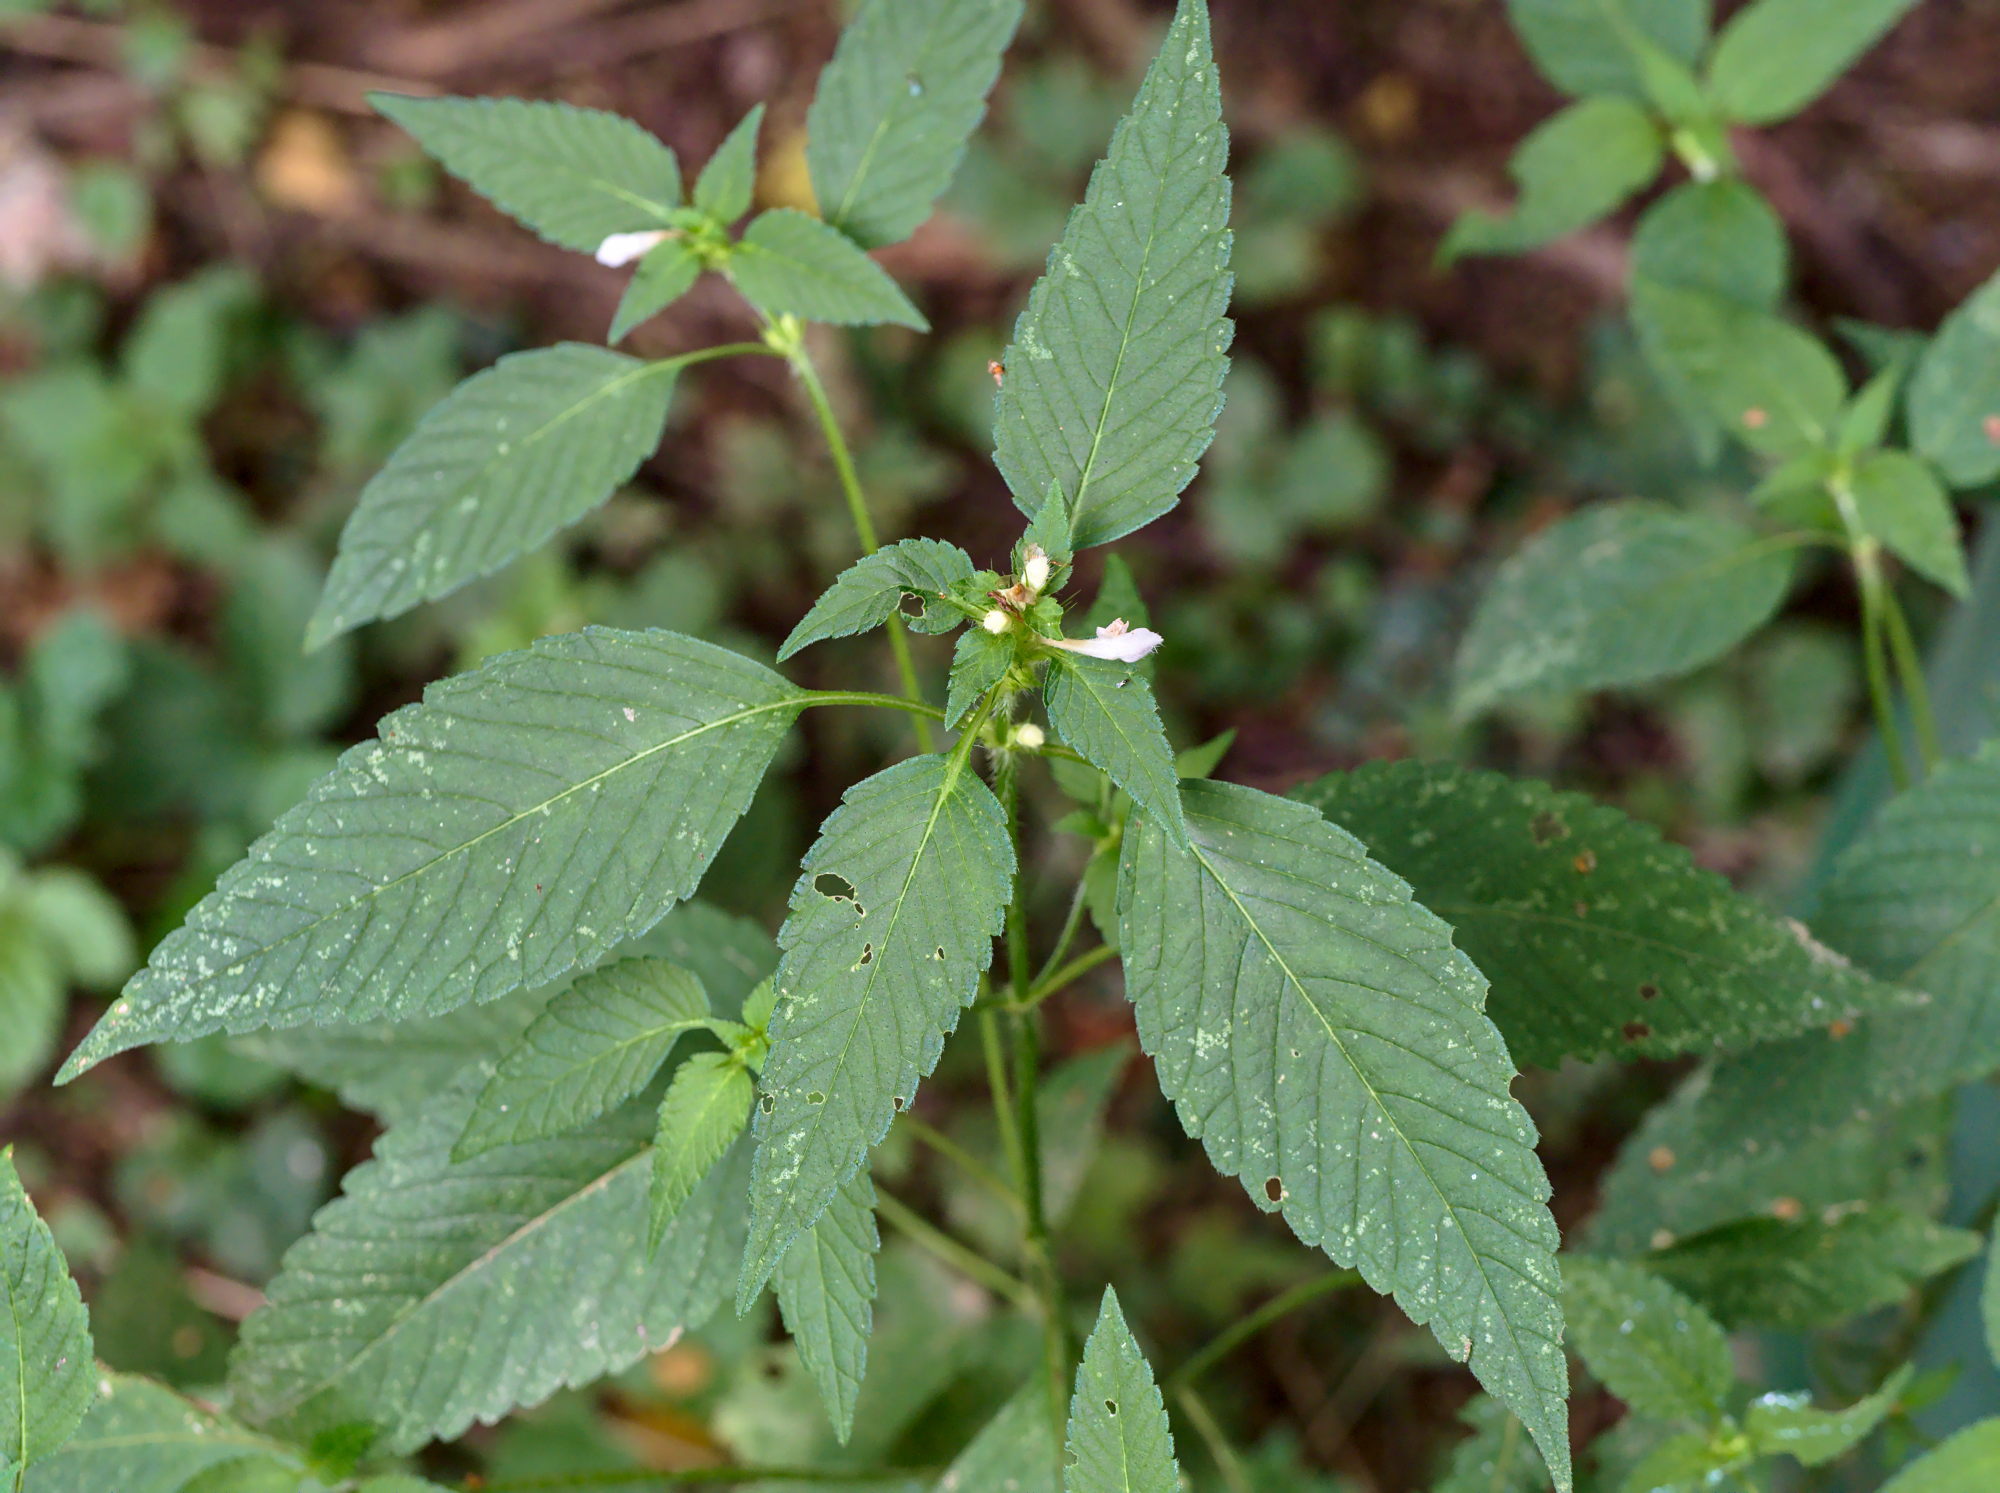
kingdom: Plantae
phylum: Tracheophyta
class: Magnoliopsida
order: Lamiales
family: Lamiaceae
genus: Galeopsis
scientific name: Galeopsis tetrahit
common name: Common hemp-nettle
